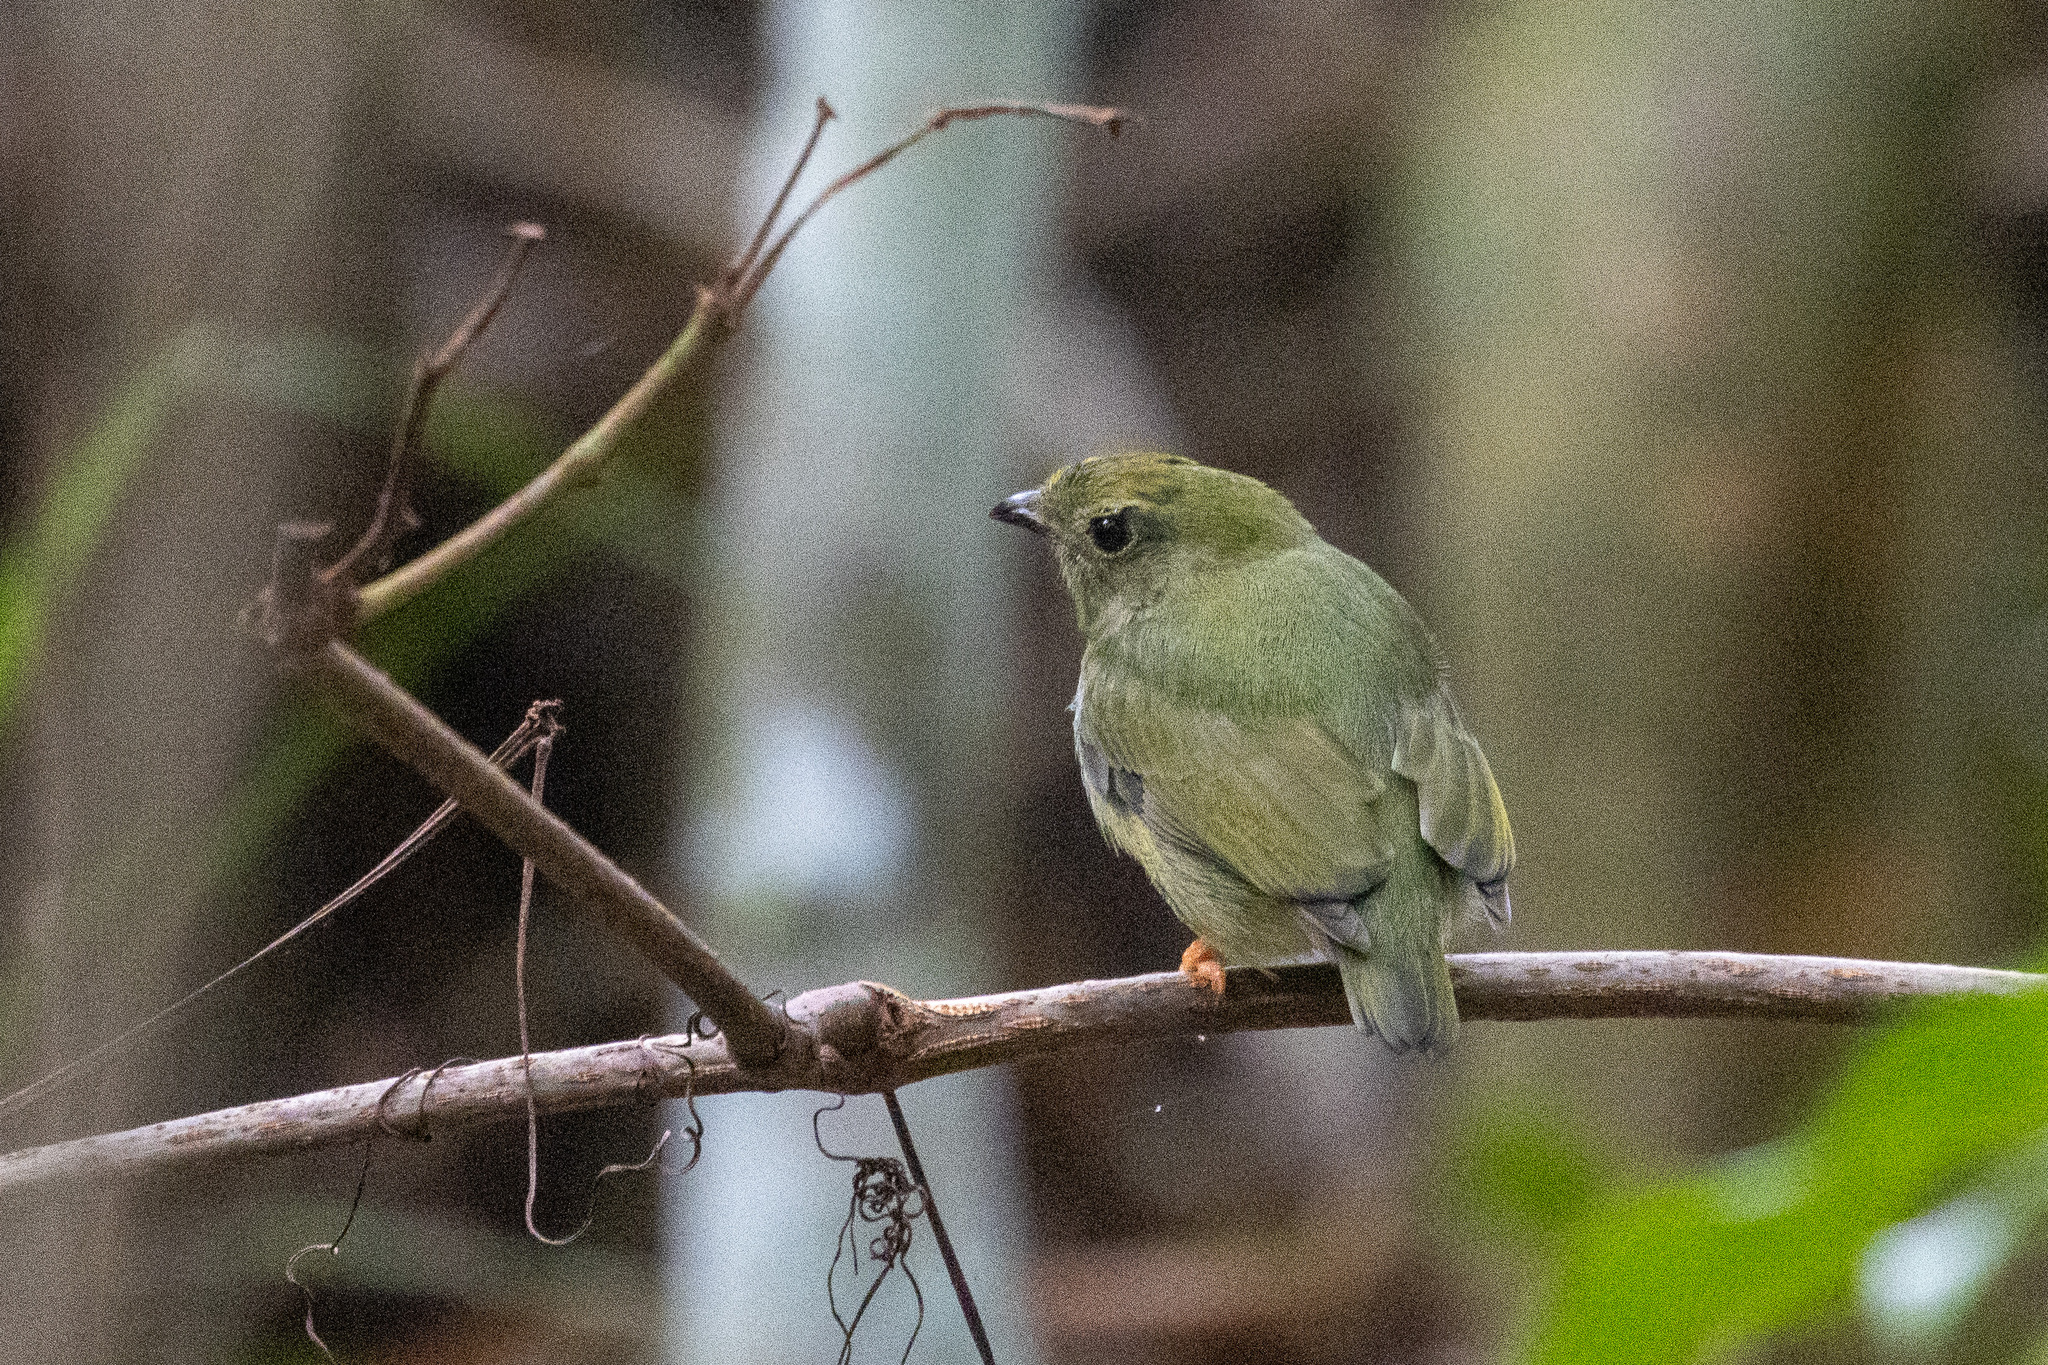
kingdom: Animalia
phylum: Chordata
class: Aves
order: Passeriformes
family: Pipridae
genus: Chiroxiphia
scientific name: Chiroxiphia pareola
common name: Blue-backed manakin
